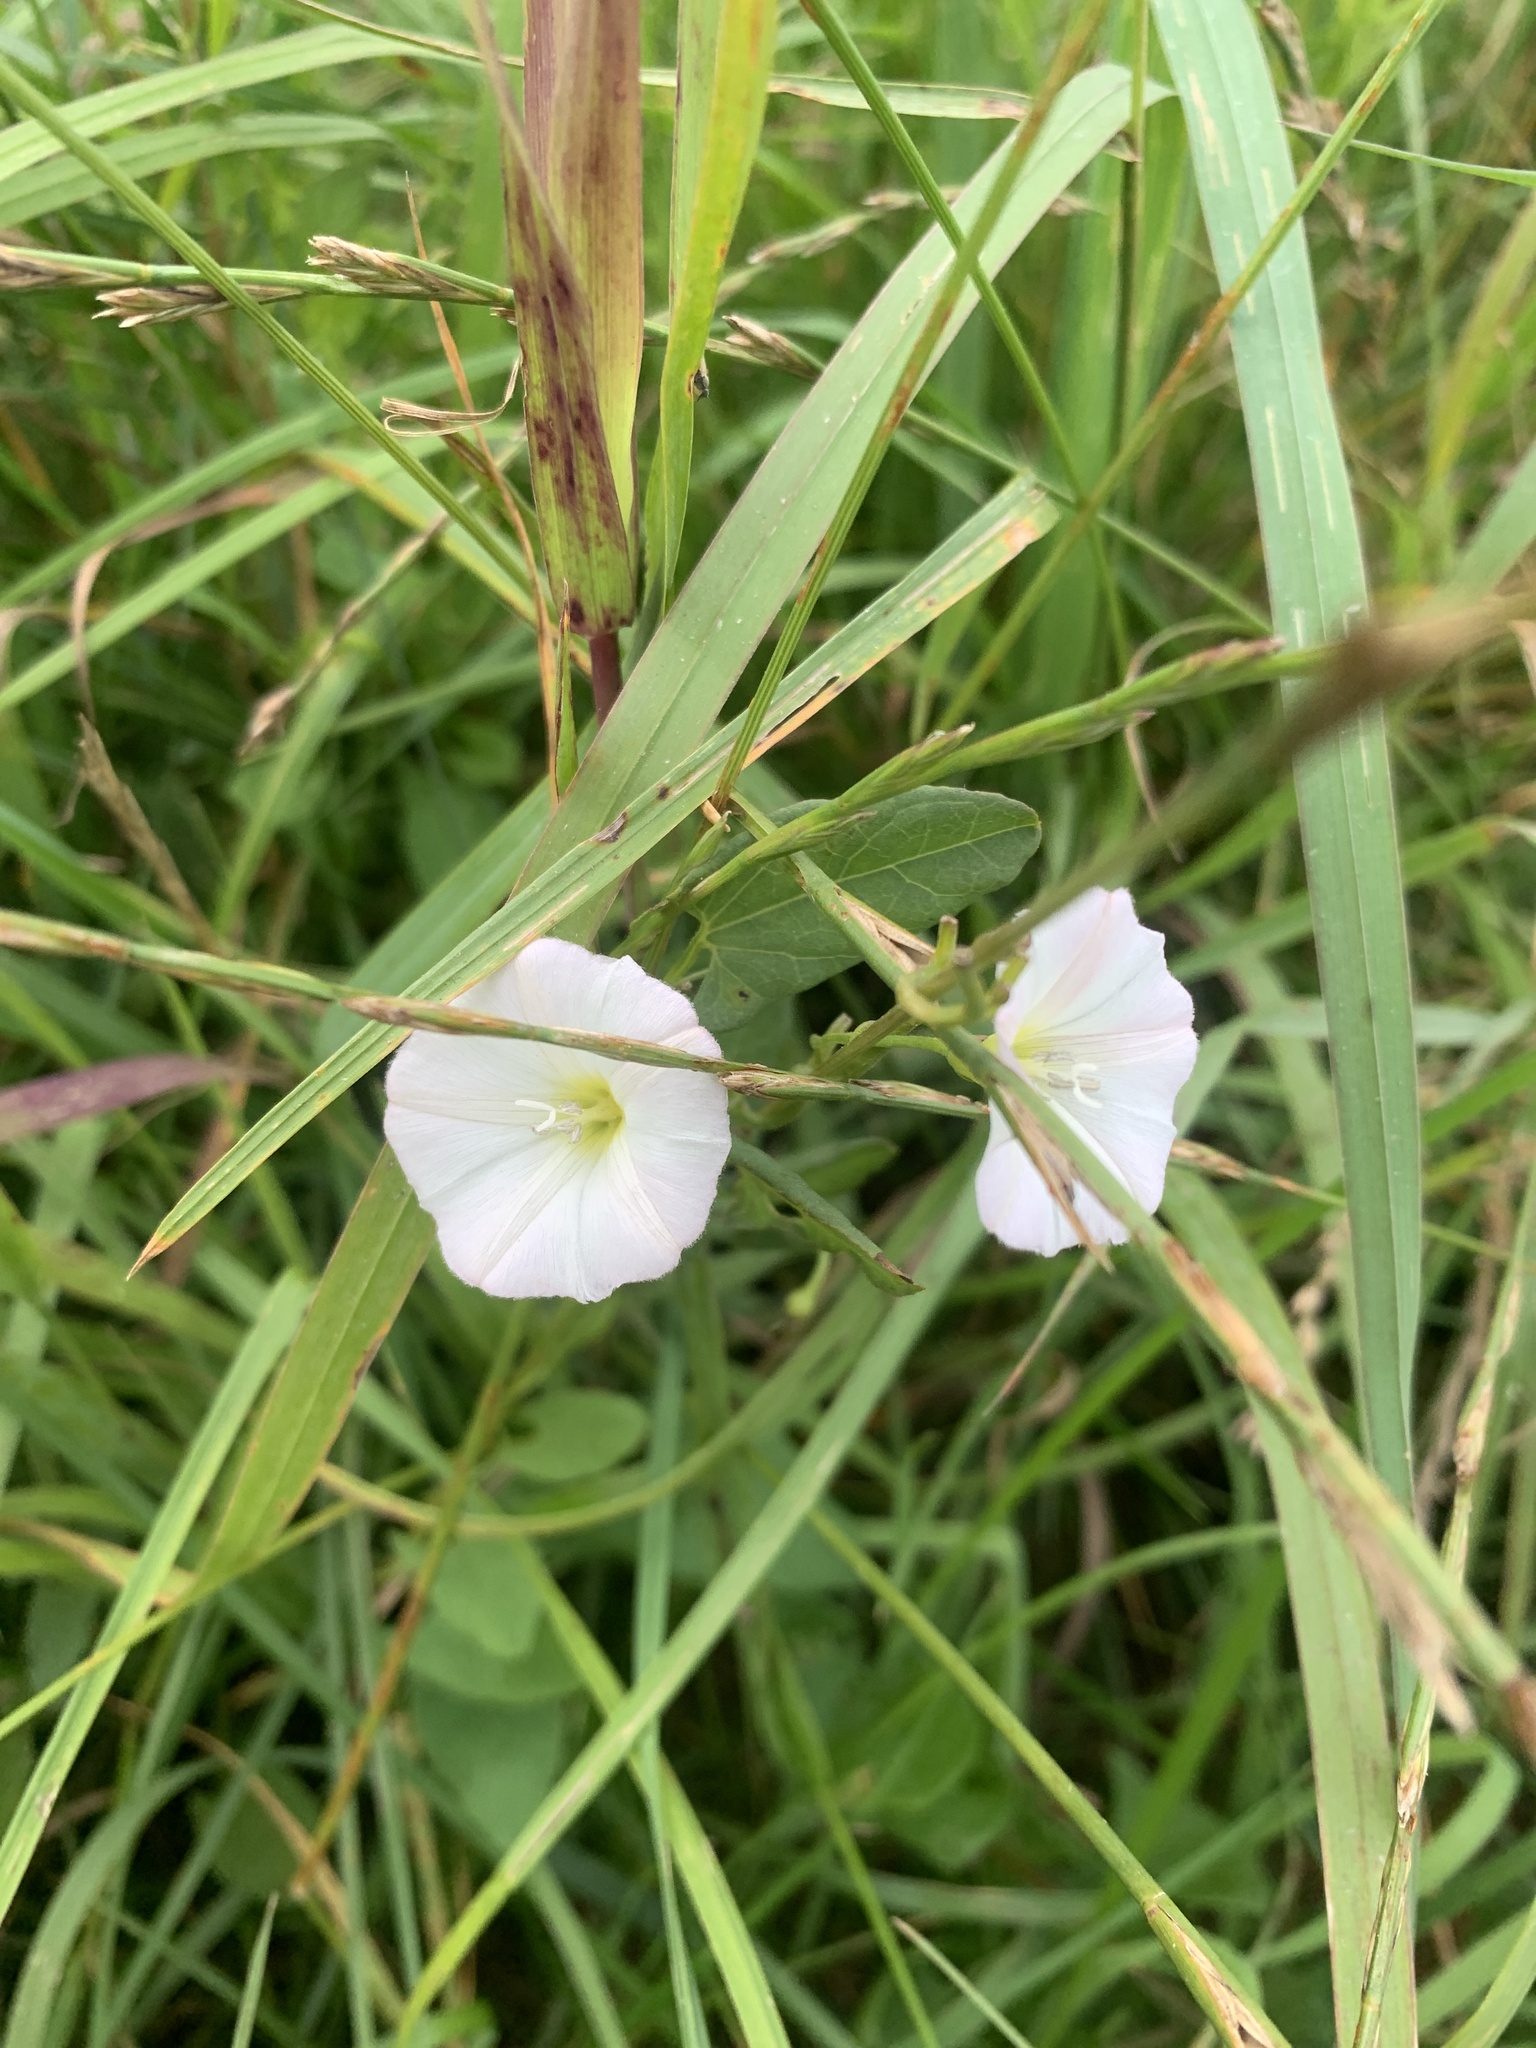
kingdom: Plantae
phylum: Tracheophyta
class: Magnoliopsida
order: Solanales
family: Convolvulaceae
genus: Convolvulus
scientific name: Convolvulus arvensis
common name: Field bindweed
